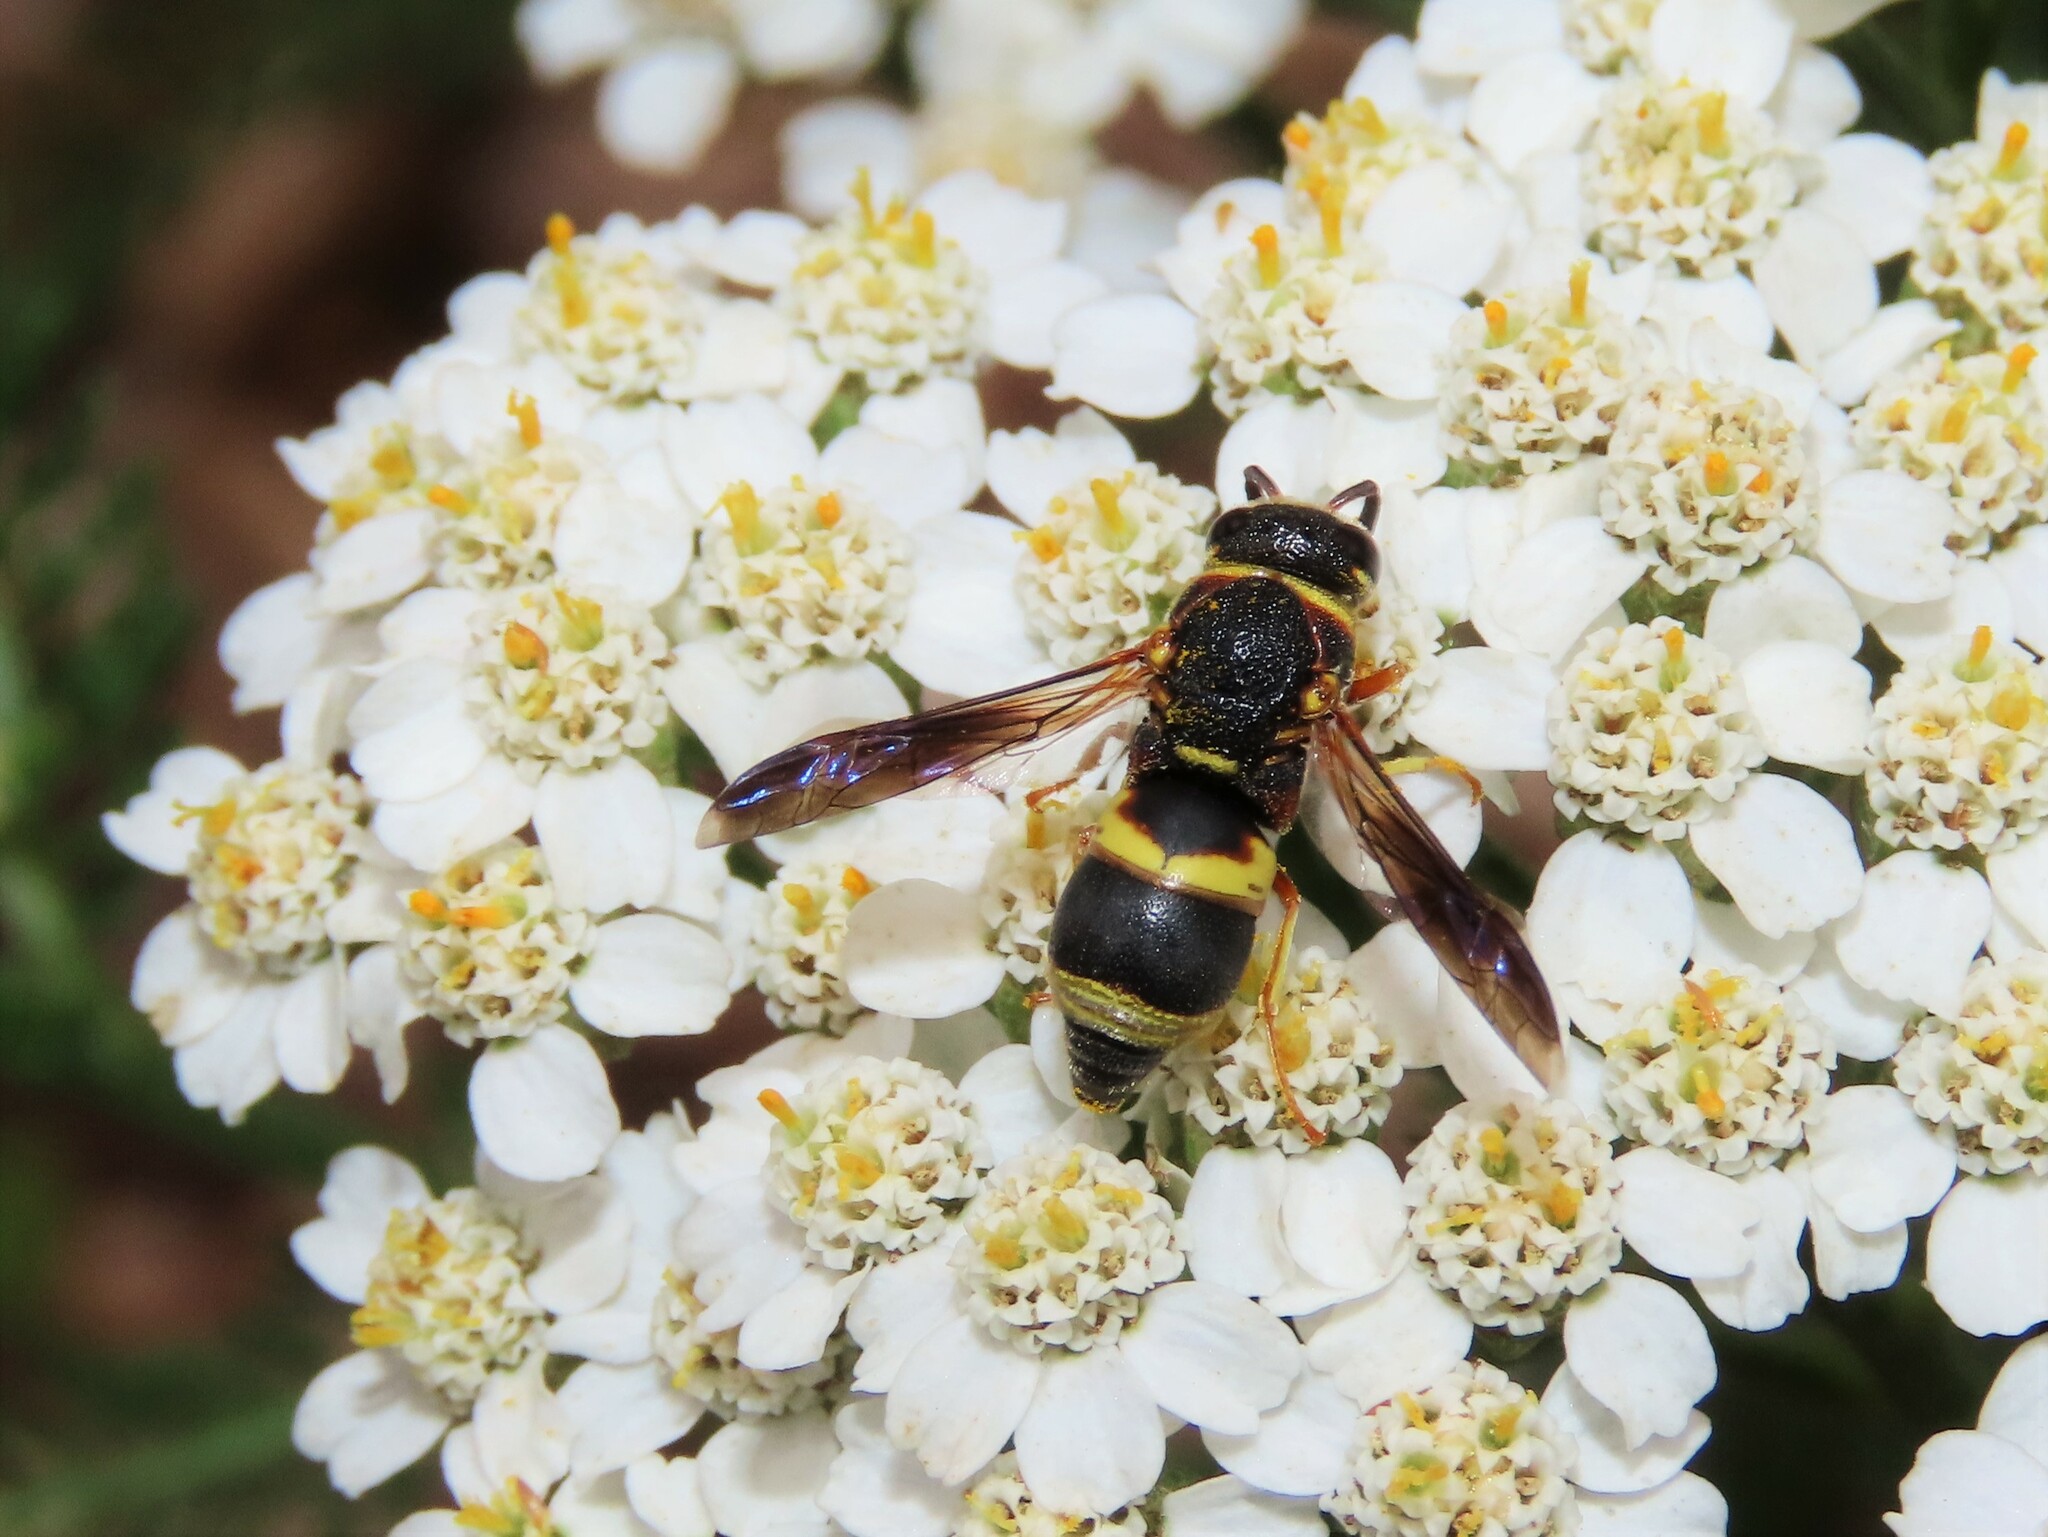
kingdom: Animalia
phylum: Arthropoda
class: Insecta
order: Hymenoptera
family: Eumenidae
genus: Euodynerus
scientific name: Euodynerus hidalgo
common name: Wasp
